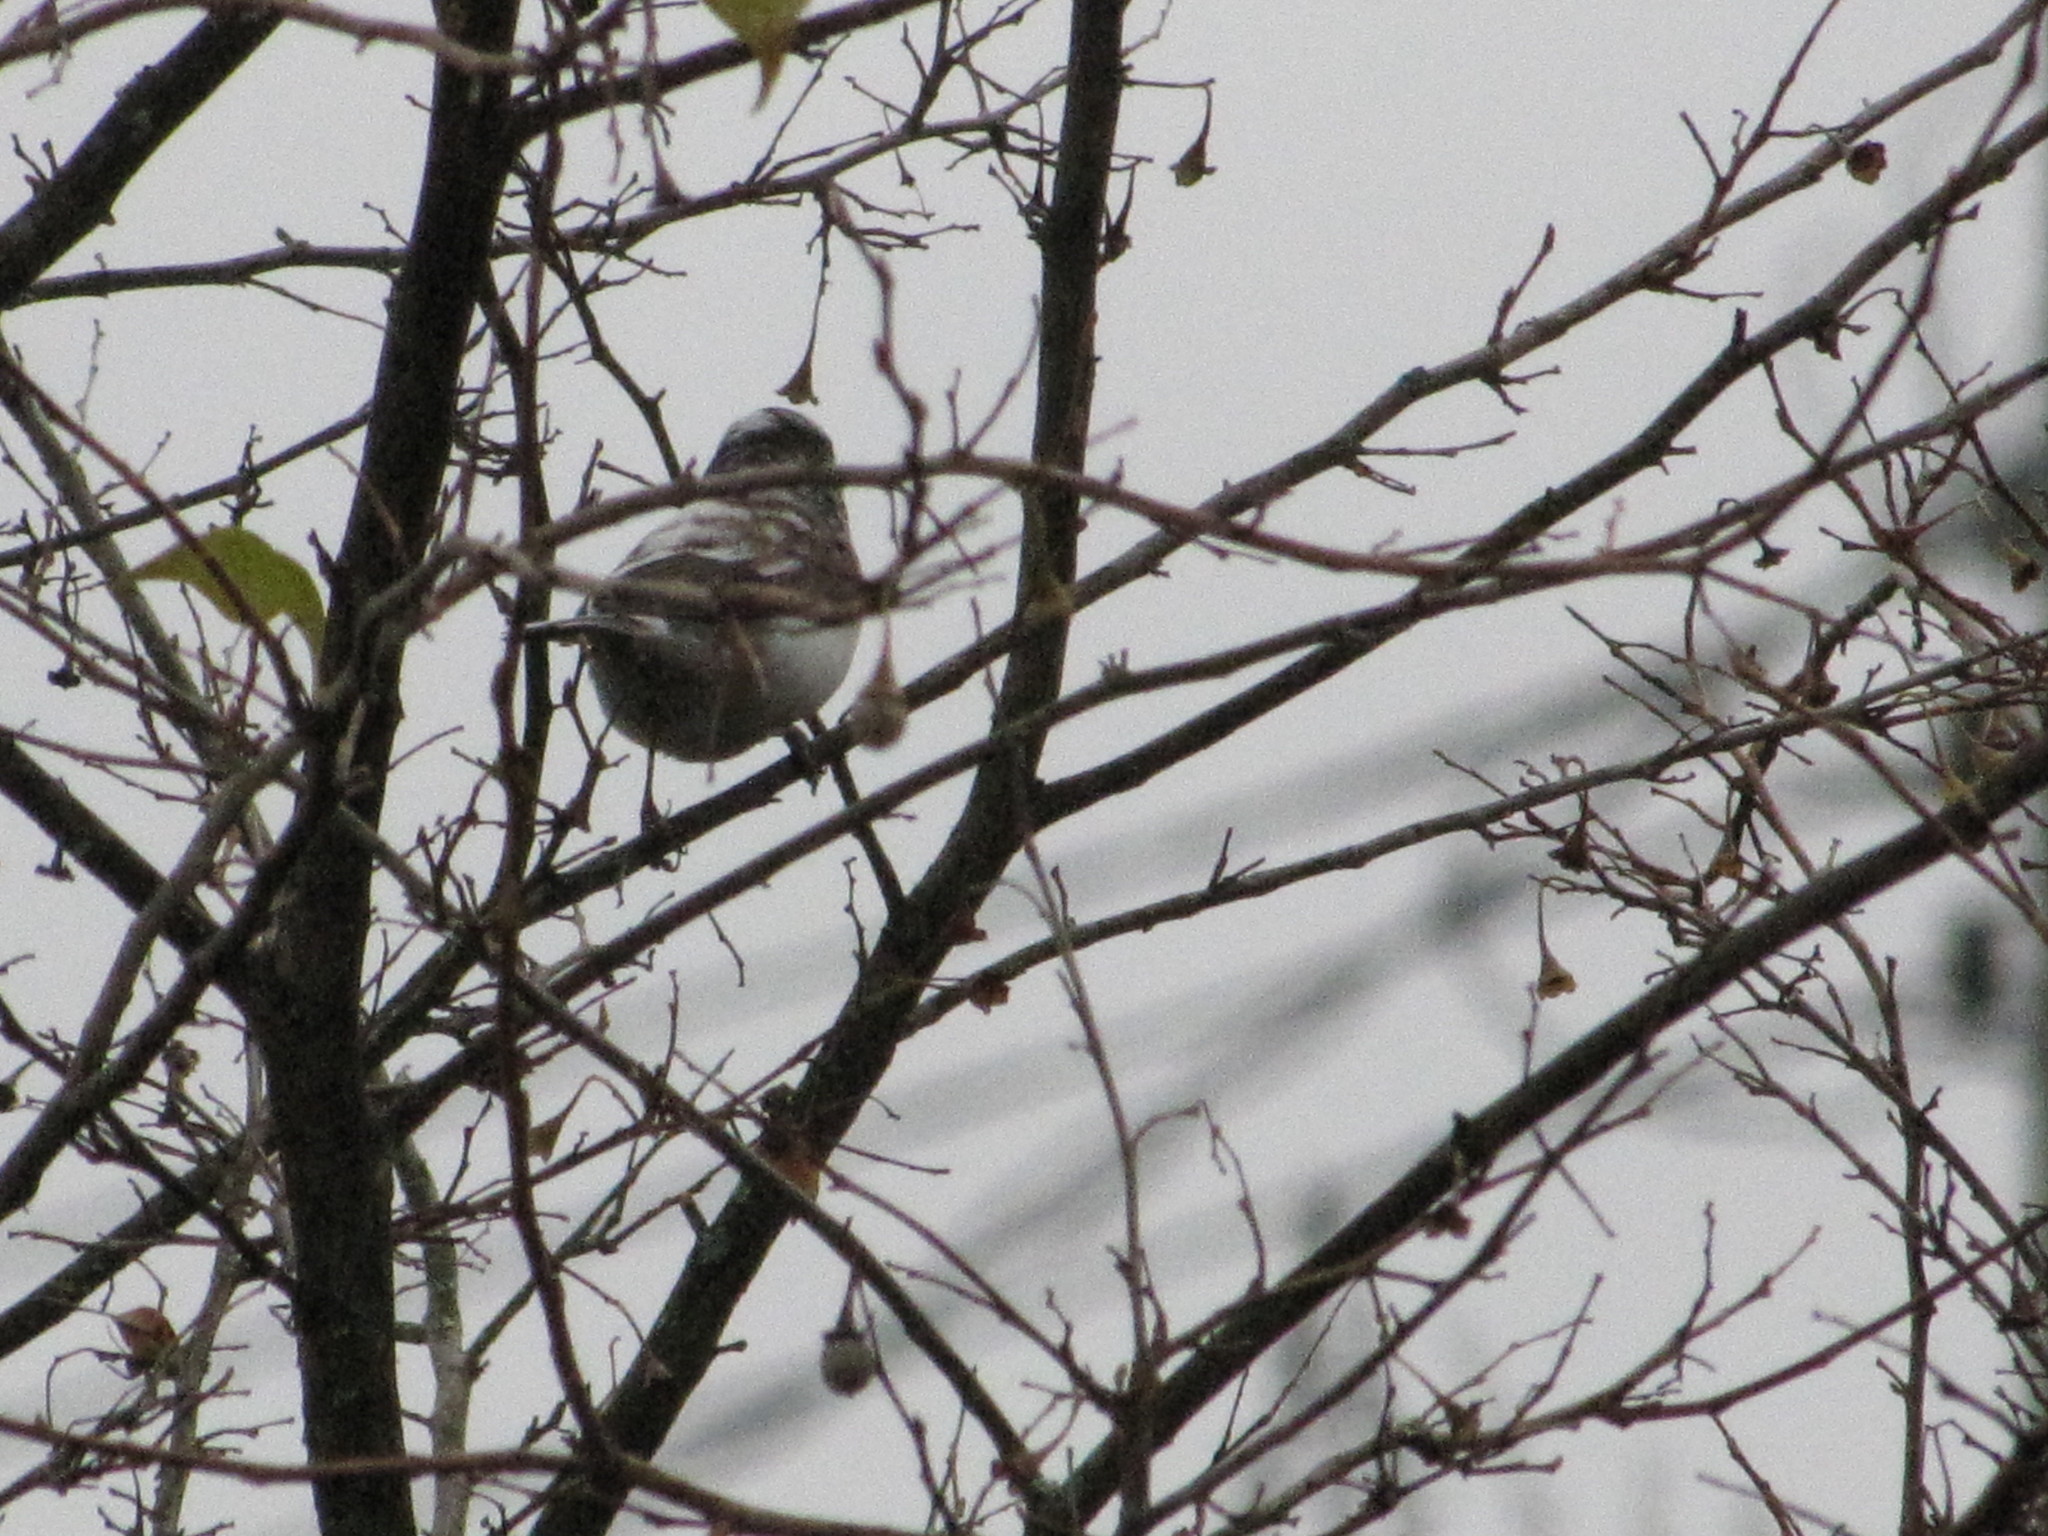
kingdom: Animalia
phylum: Chordata
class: Aves
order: Passeriformes
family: Passerellidae
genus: Junco
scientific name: Junco hyemalis
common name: Dark-eyed junco
